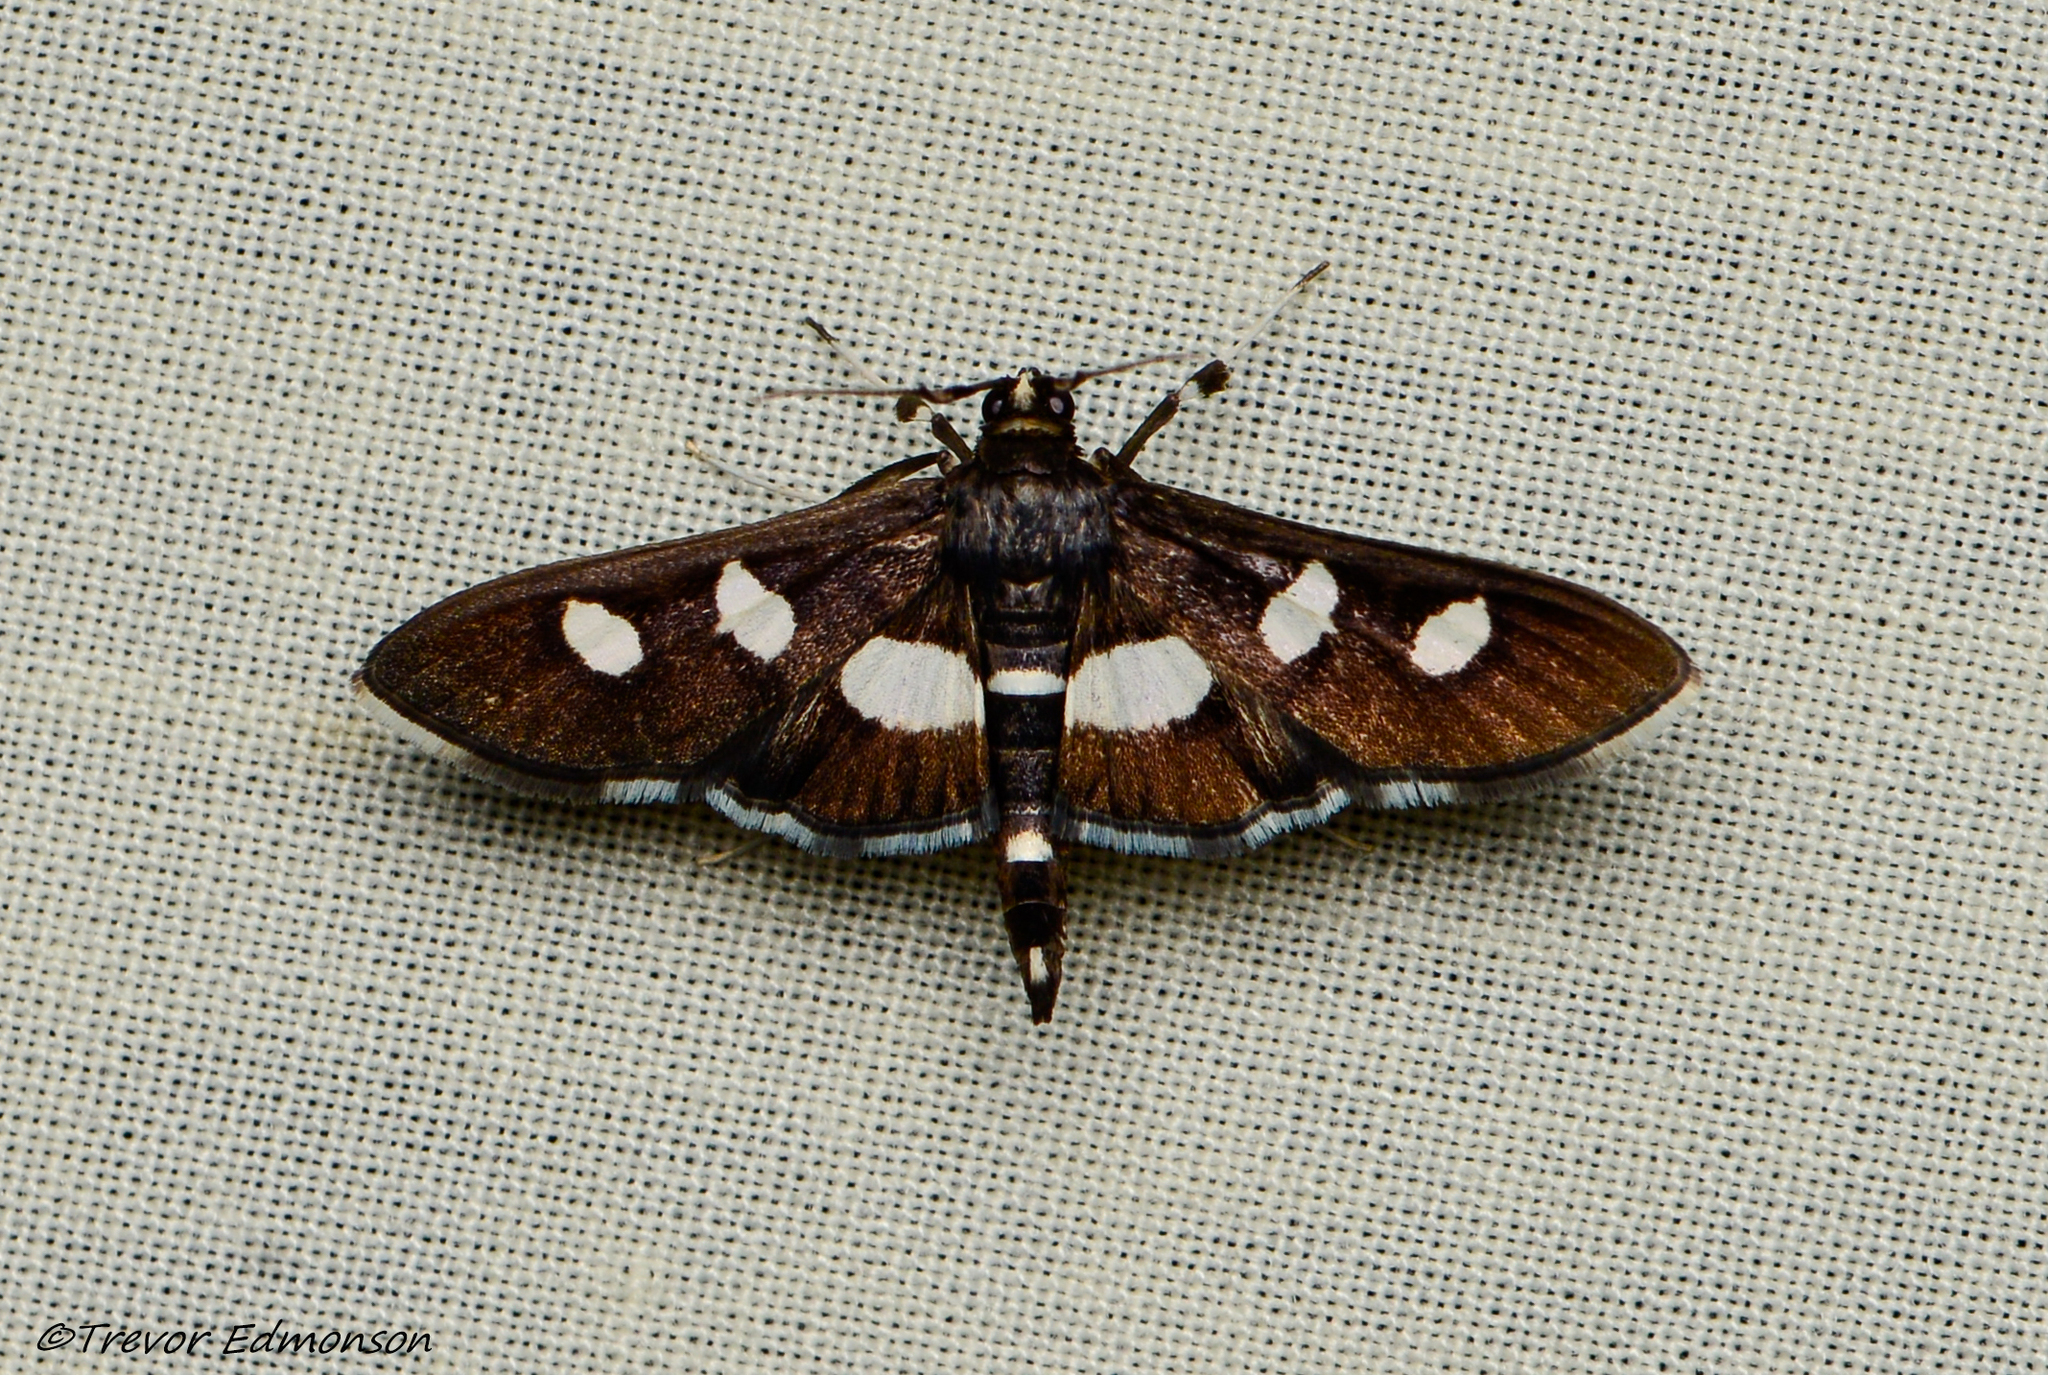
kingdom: Animalia
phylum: Arthropoda
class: Insecta
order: Lepidoptera
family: Crambidae
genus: Desmia
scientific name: Desmia
